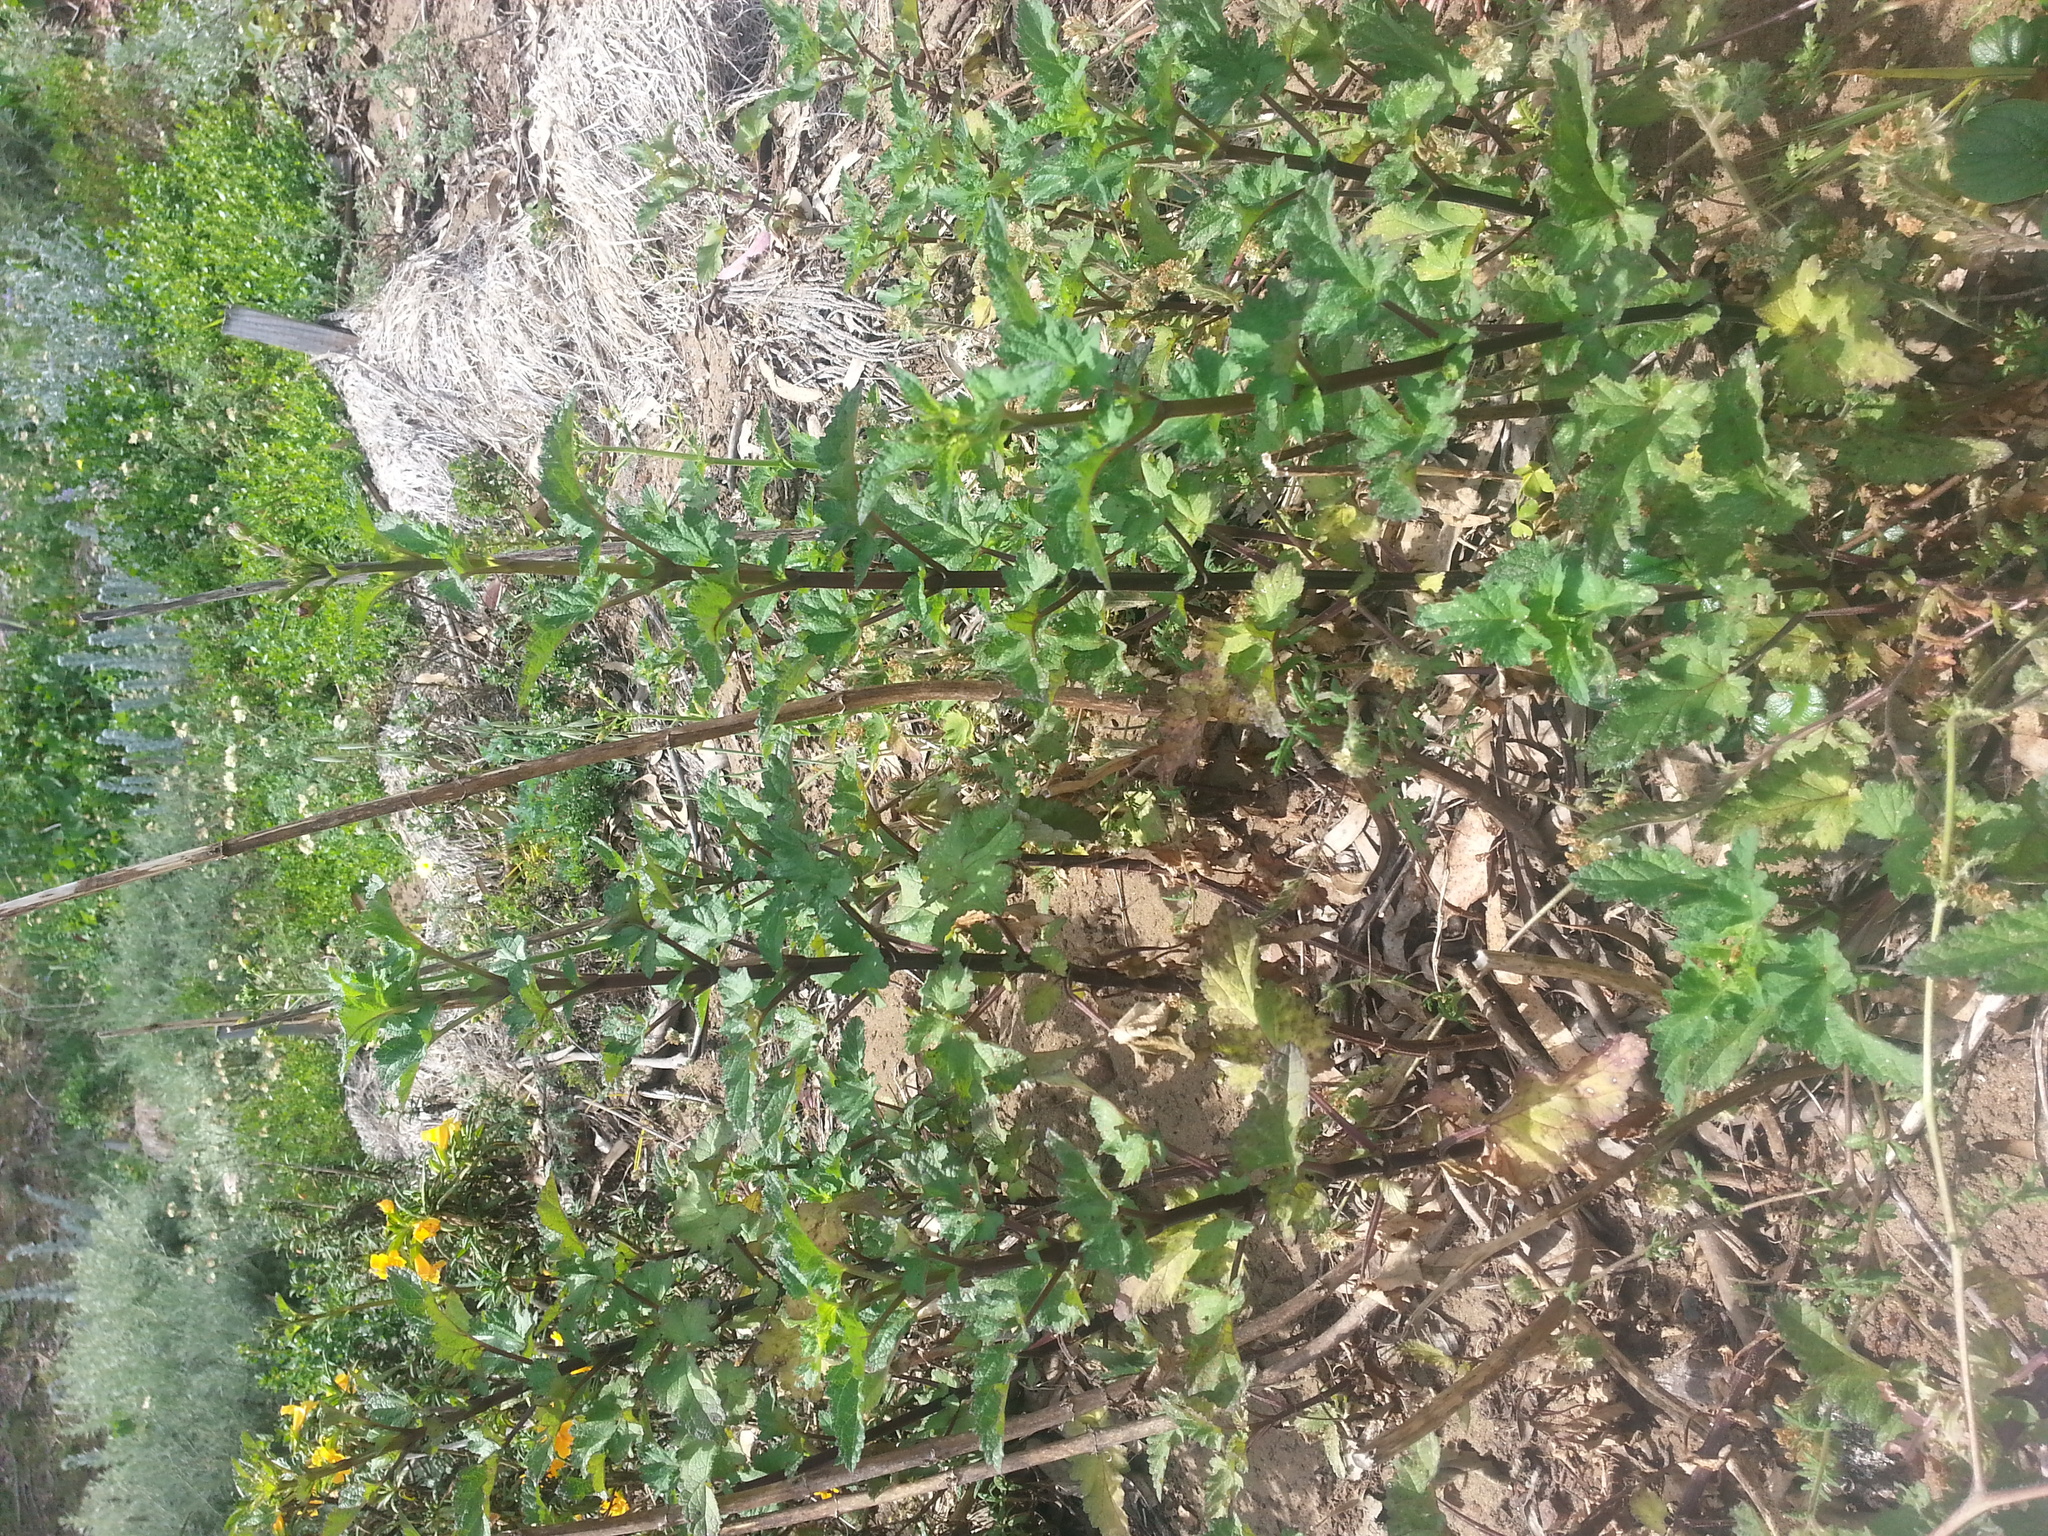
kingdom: Plantae
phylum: Tracheophyta
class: Magnoliopsida
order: Lamiales
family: Scrophulariaceae
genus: Scrophularia
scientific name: Scrophularia californica
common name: California figwort
